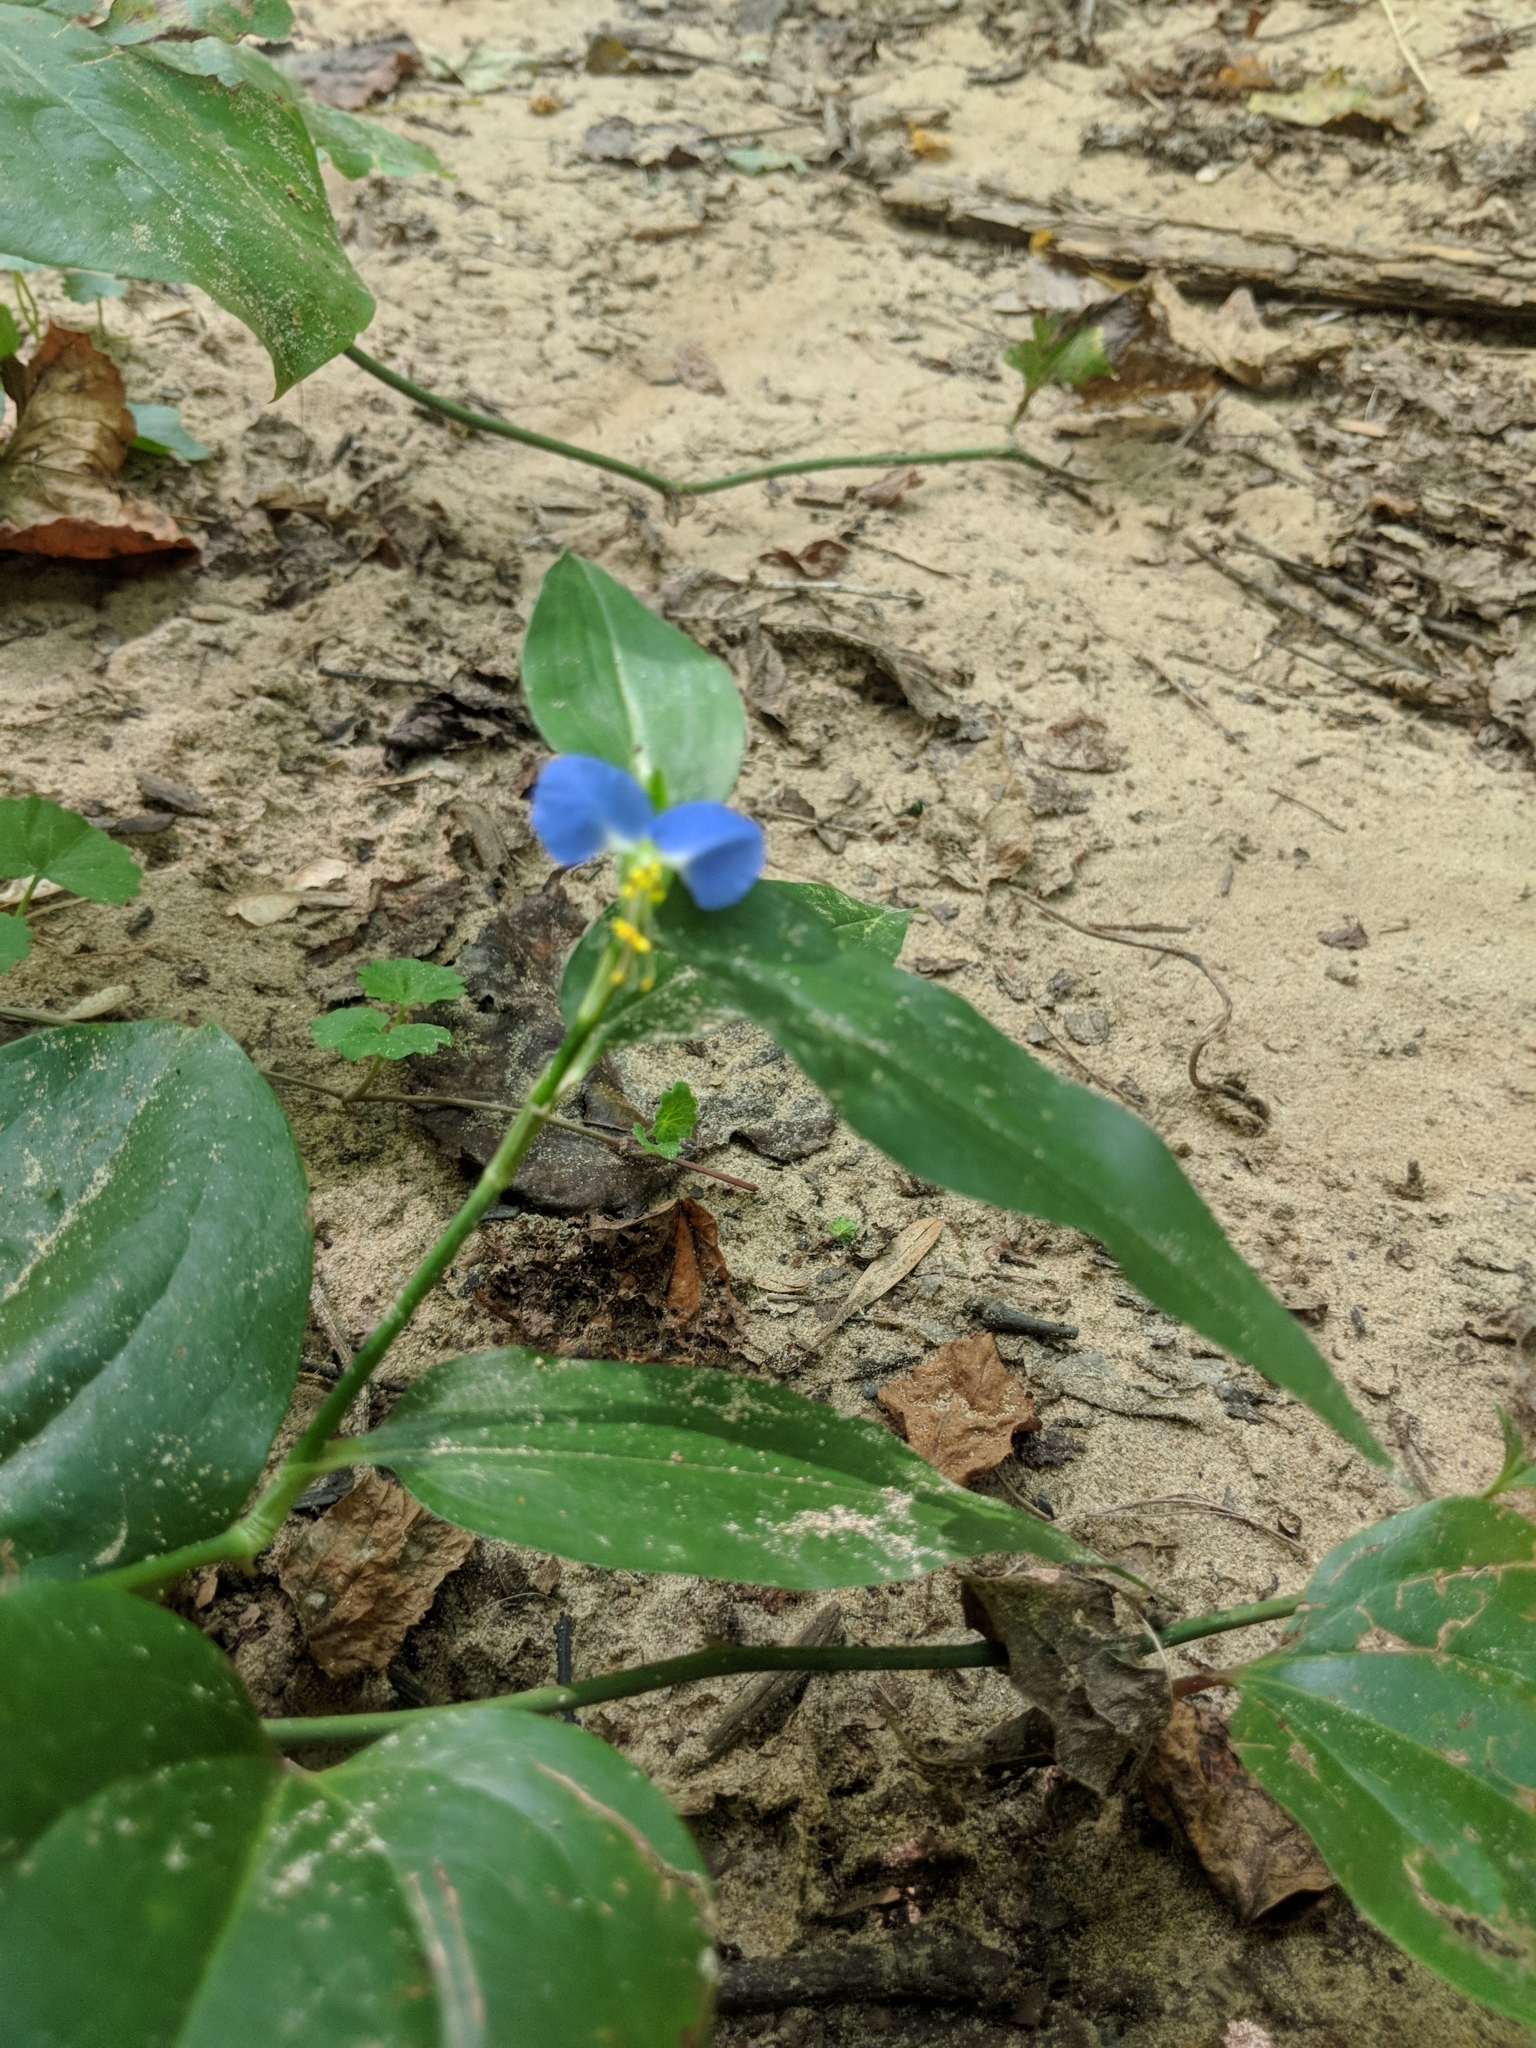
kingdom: Plantae
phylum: Tracheophyta
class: Liliopsida
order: Commelinales
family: Commelinaceae
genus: Commelina
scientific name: Commelina communis
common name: Asiatic dayflower
